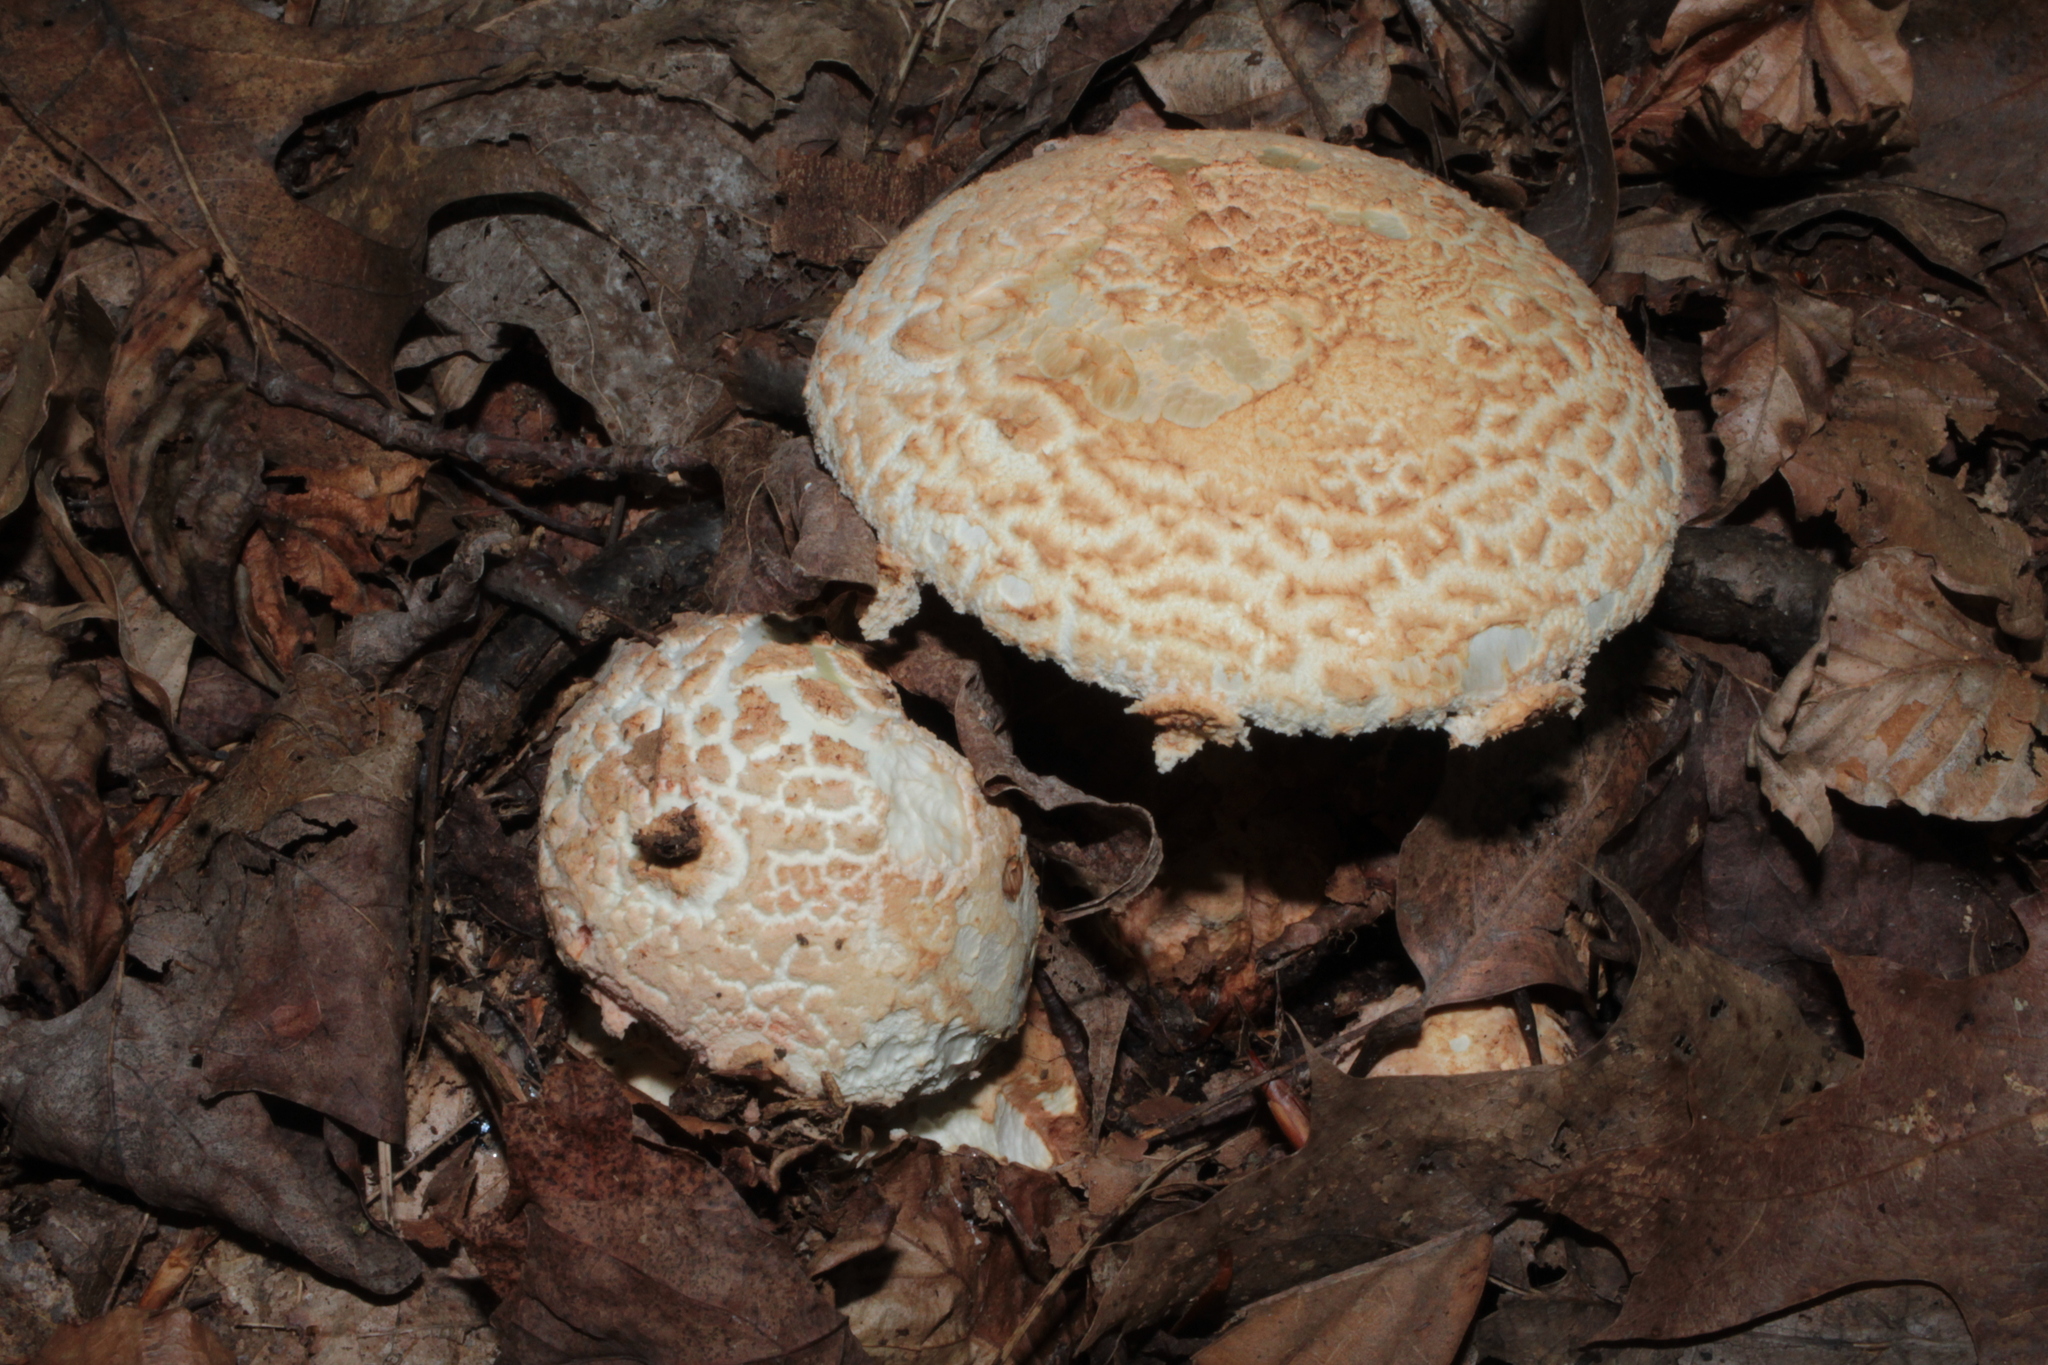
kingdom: Fungi
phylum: Basidiomycota
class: Agaricomycetes
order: Agaricales
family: Amanitaceae
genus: Amanita
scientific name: Amanita daucipes
